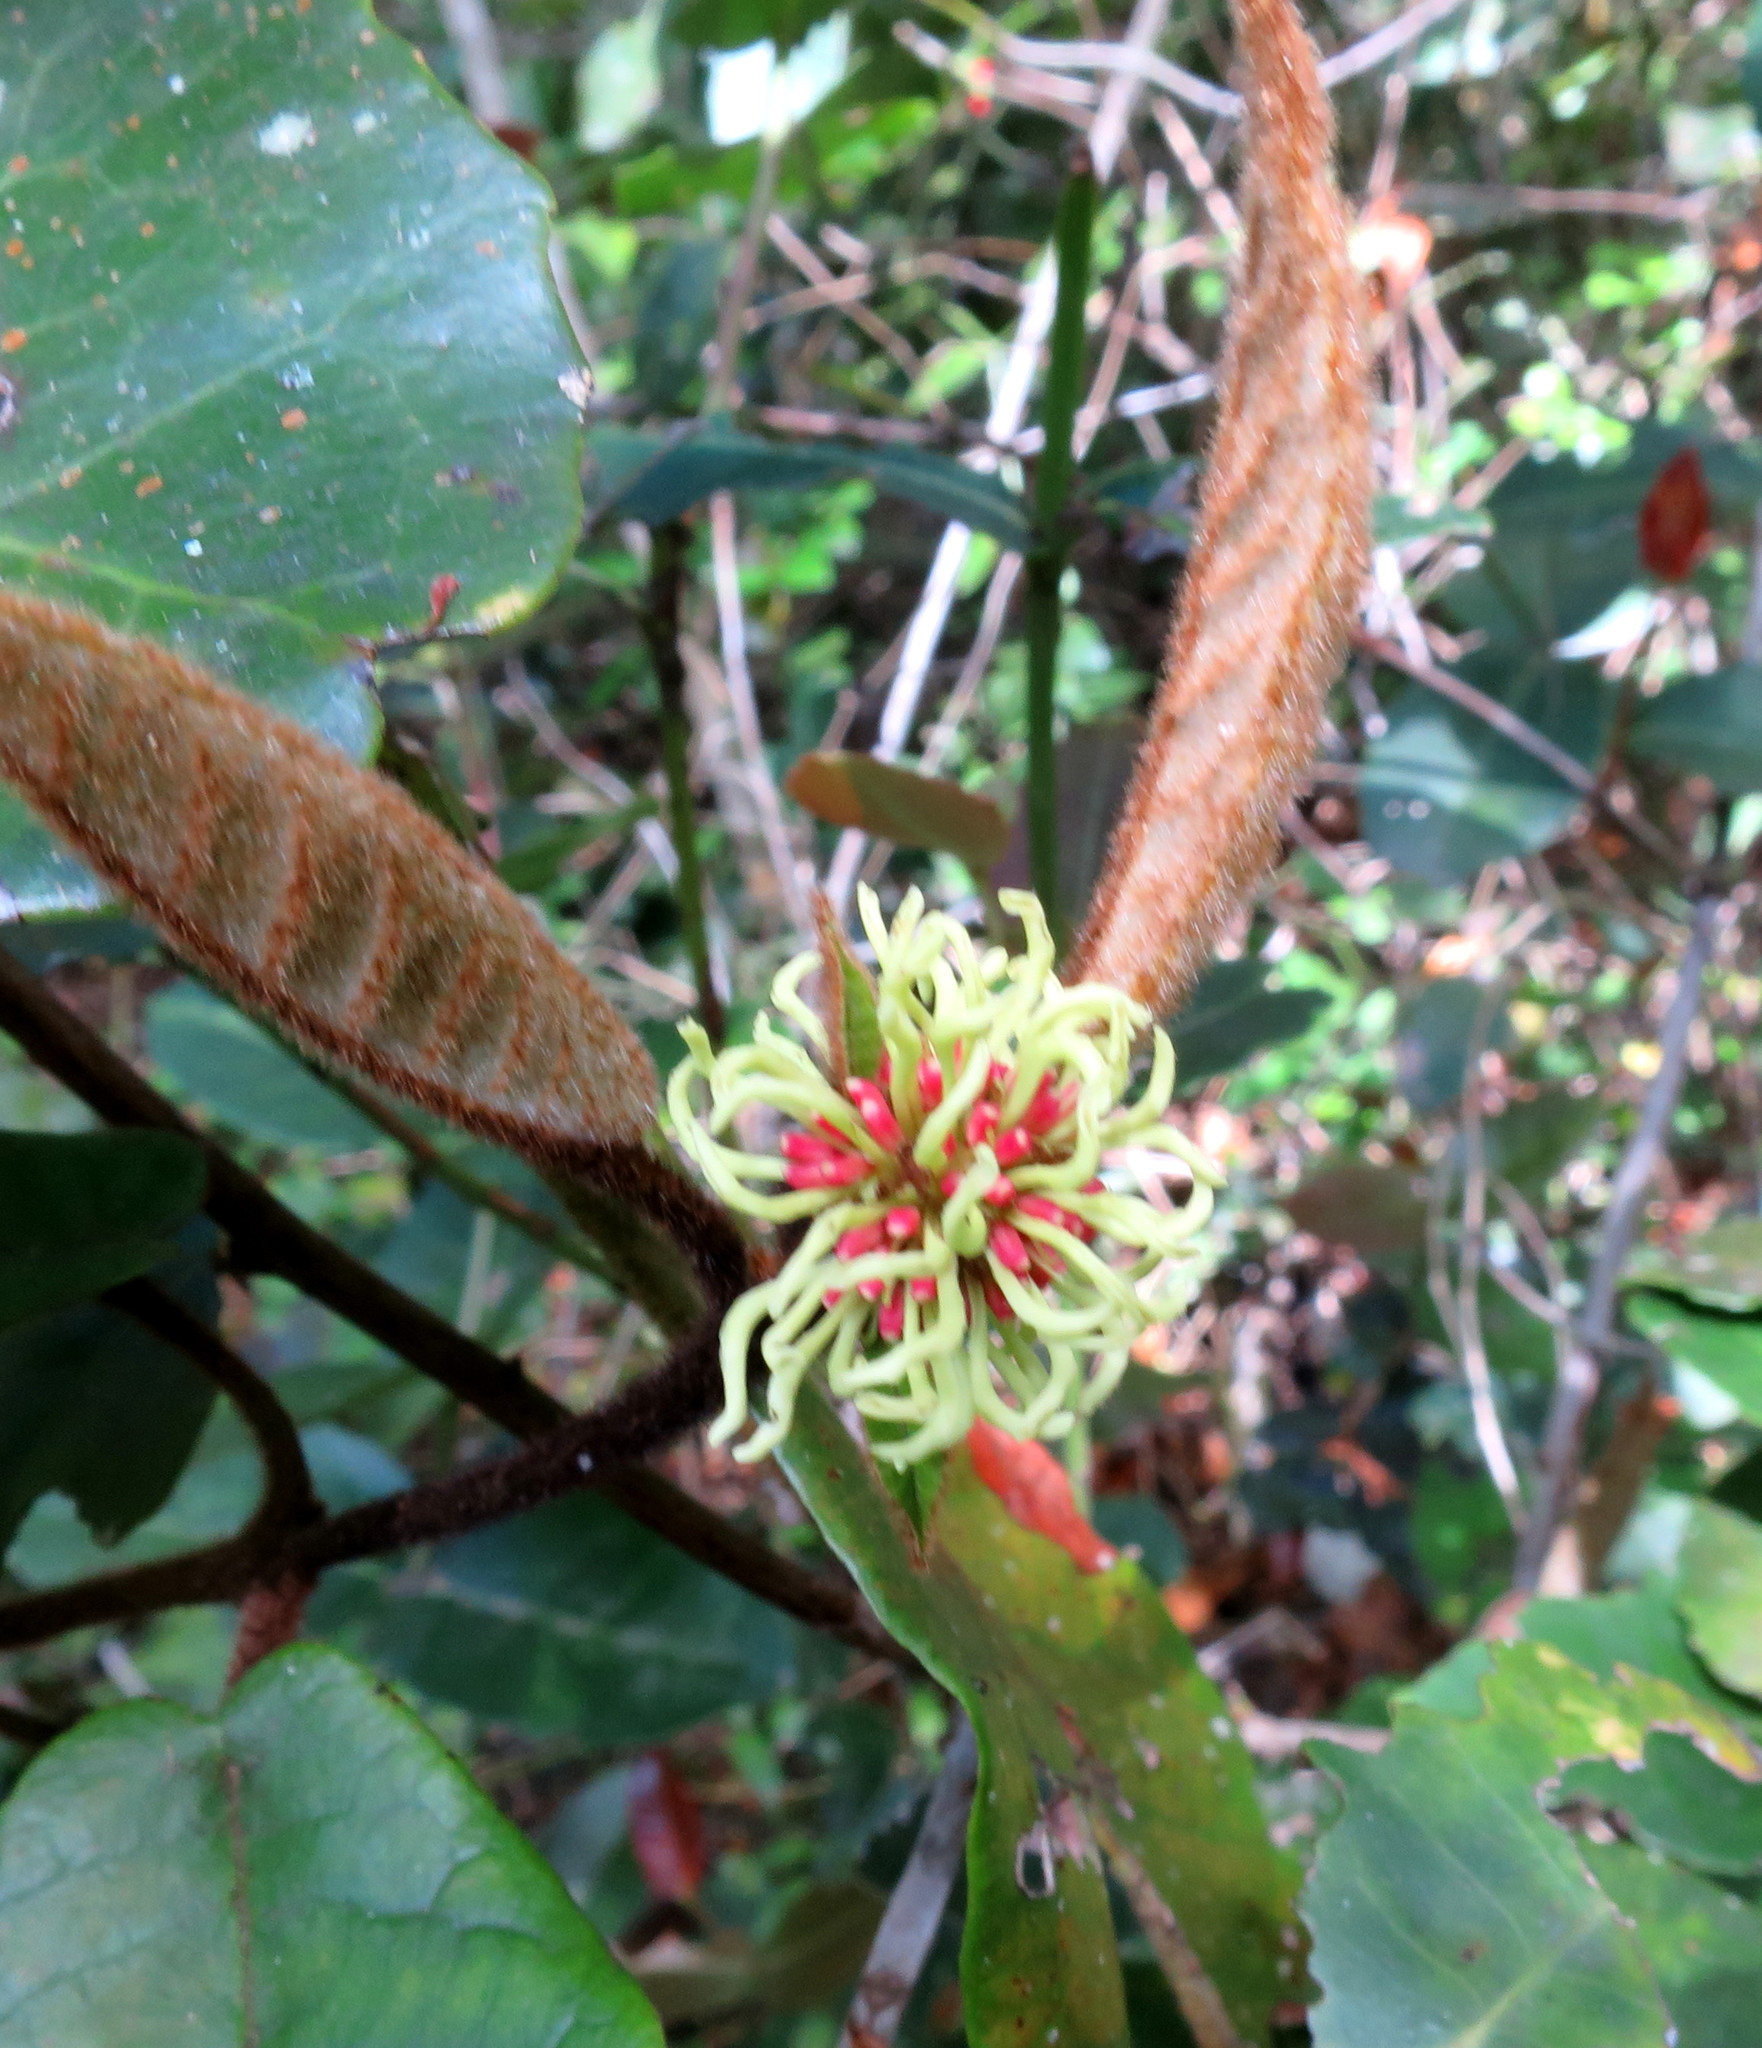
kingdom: Plantae
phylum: Tracheophyta
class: Magnoliopsida
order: Saxifragales
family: Hamamelidaceae
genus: Trichocladus
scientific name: Trichocladus crinitus
